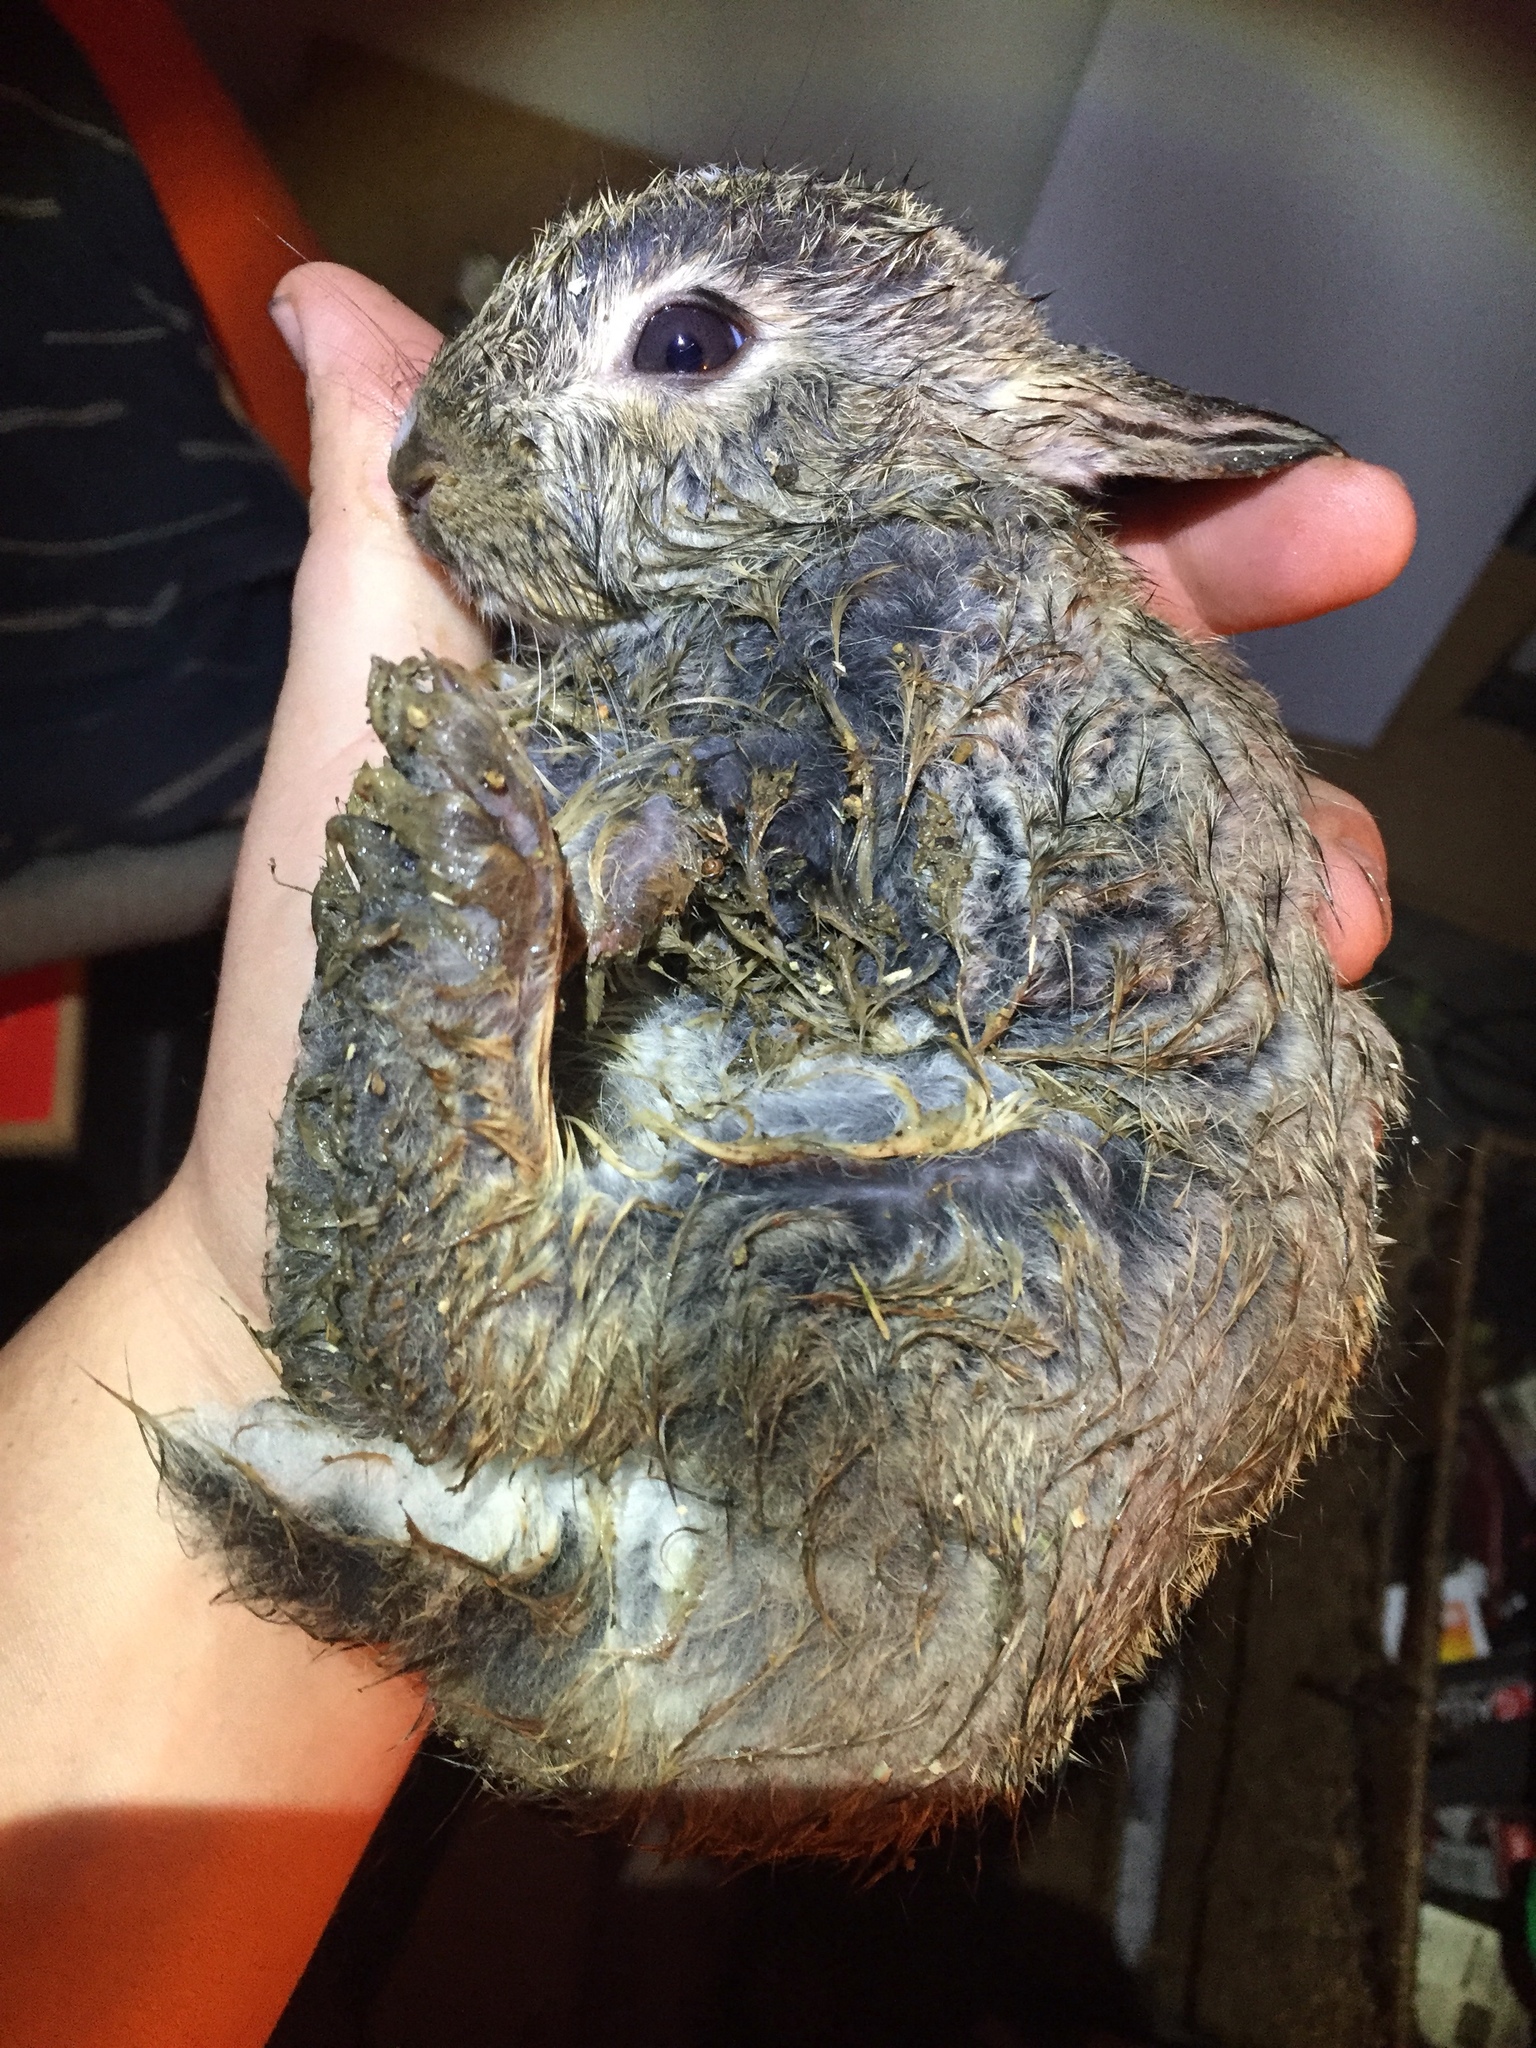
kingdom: Animalia
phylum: Chordata
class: Mammalia
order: Lagomorpha
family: Leporidae
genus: Oryctolagus
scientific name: Oryctolagus cuniculus
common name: European rabbit
